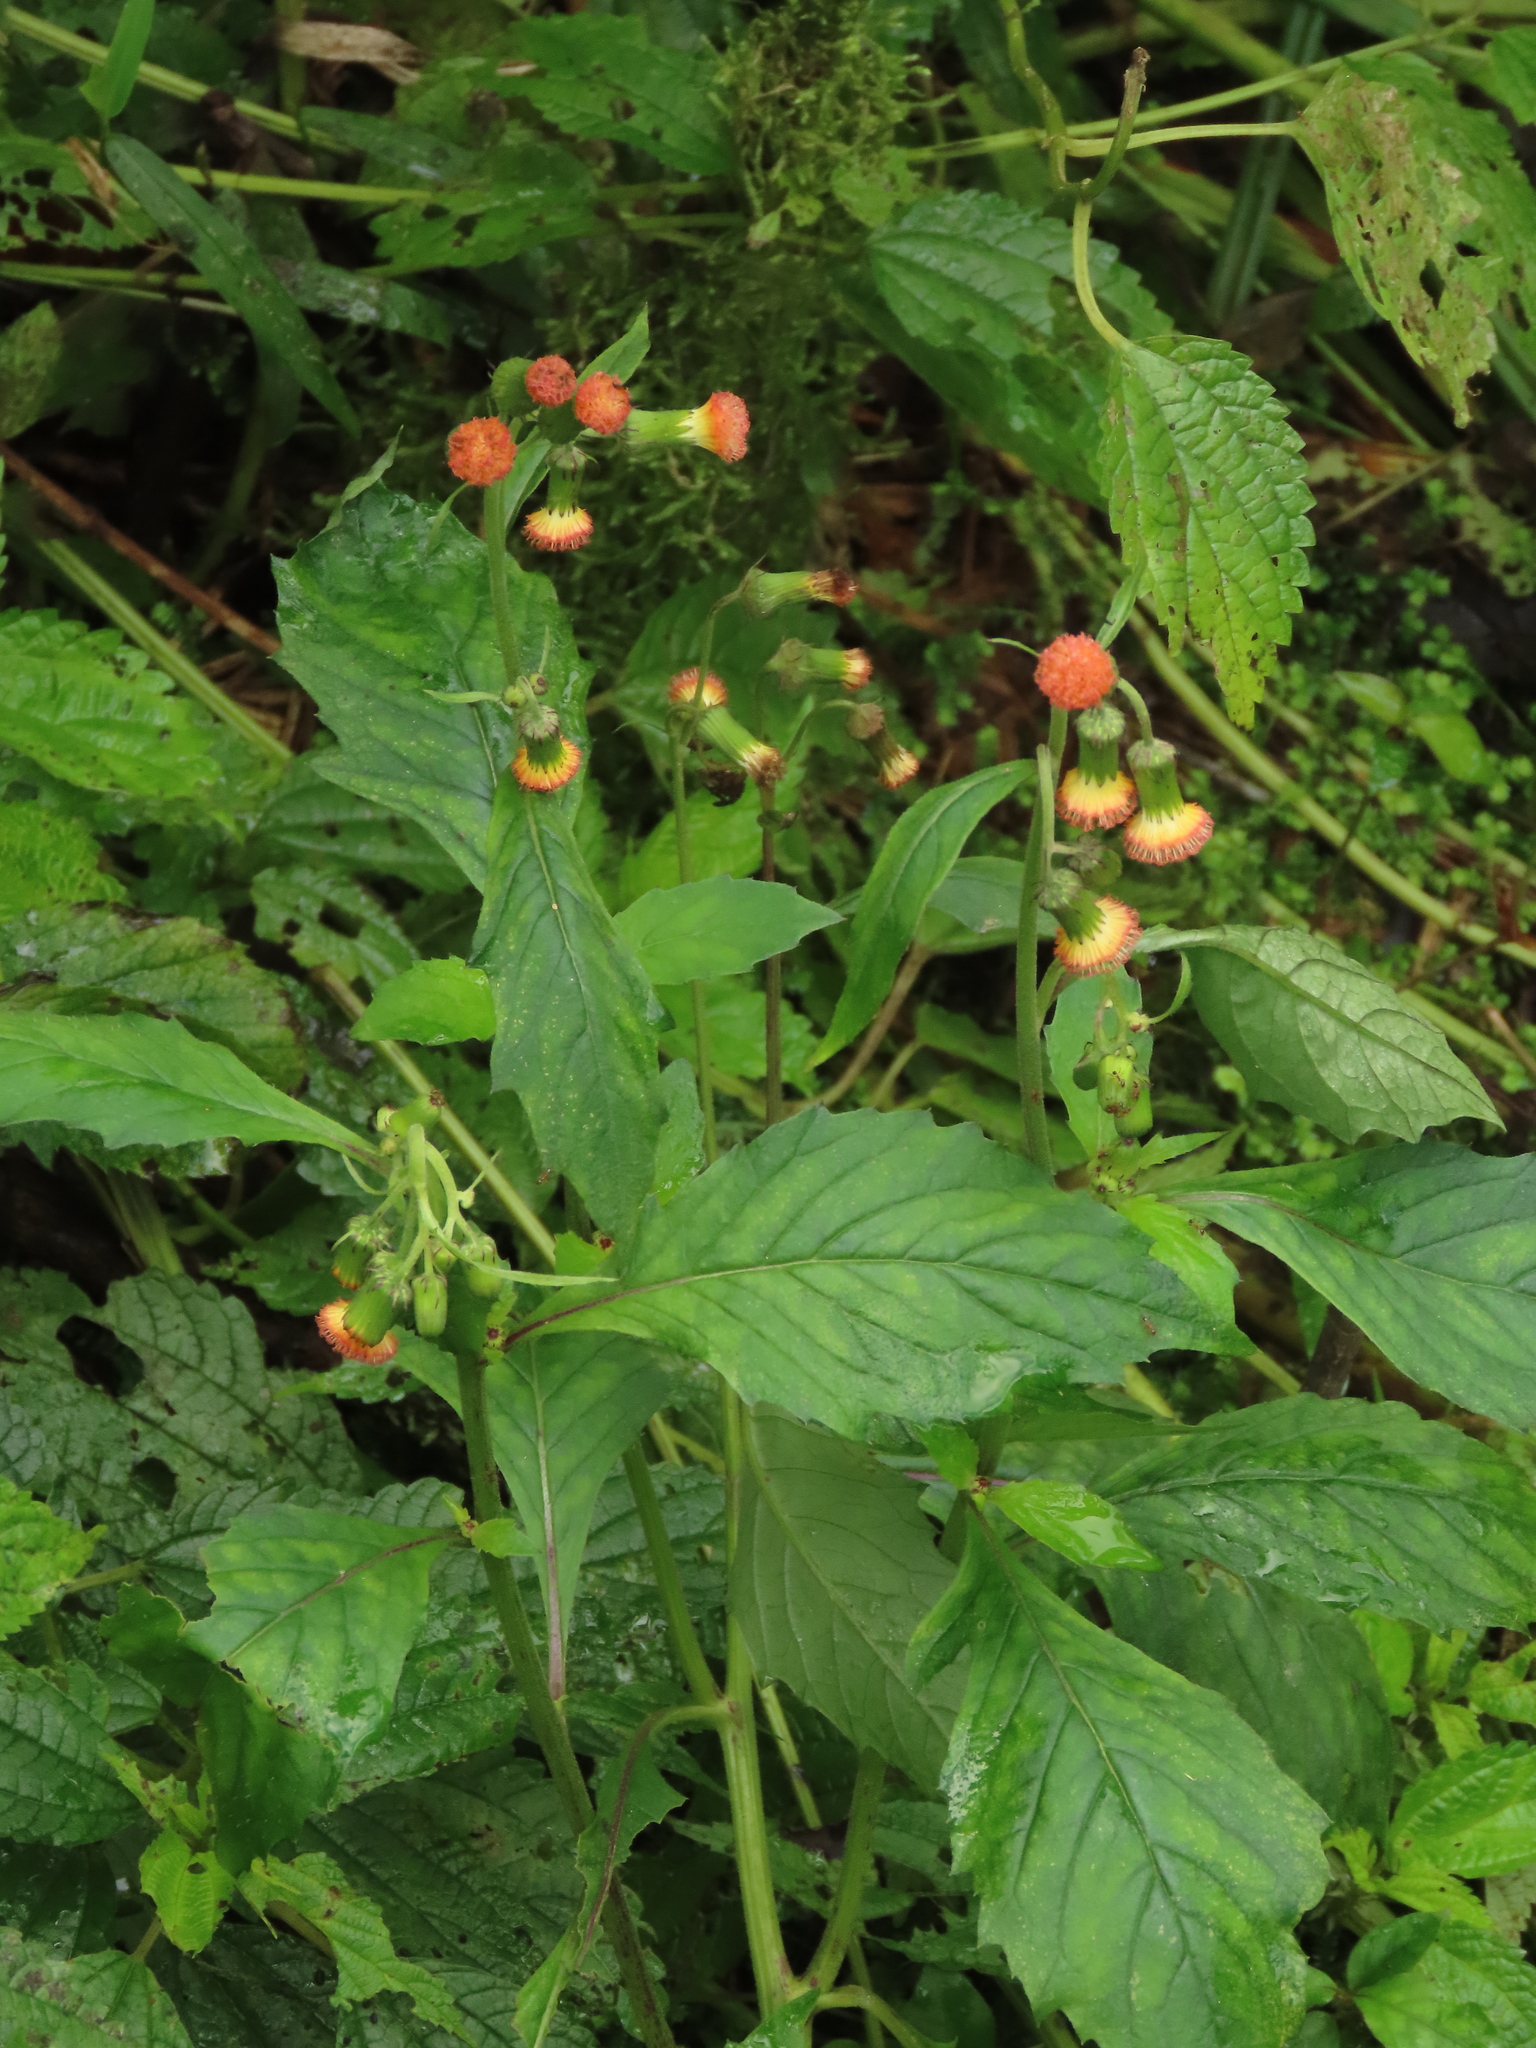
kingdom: Plantae
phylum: Tracheophyta
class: Magnoliopsida
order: Asterales
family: Asteraceae
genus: Crassocephalum
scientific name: Crassocephalum crepidioides
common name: Redflower ragleaf
